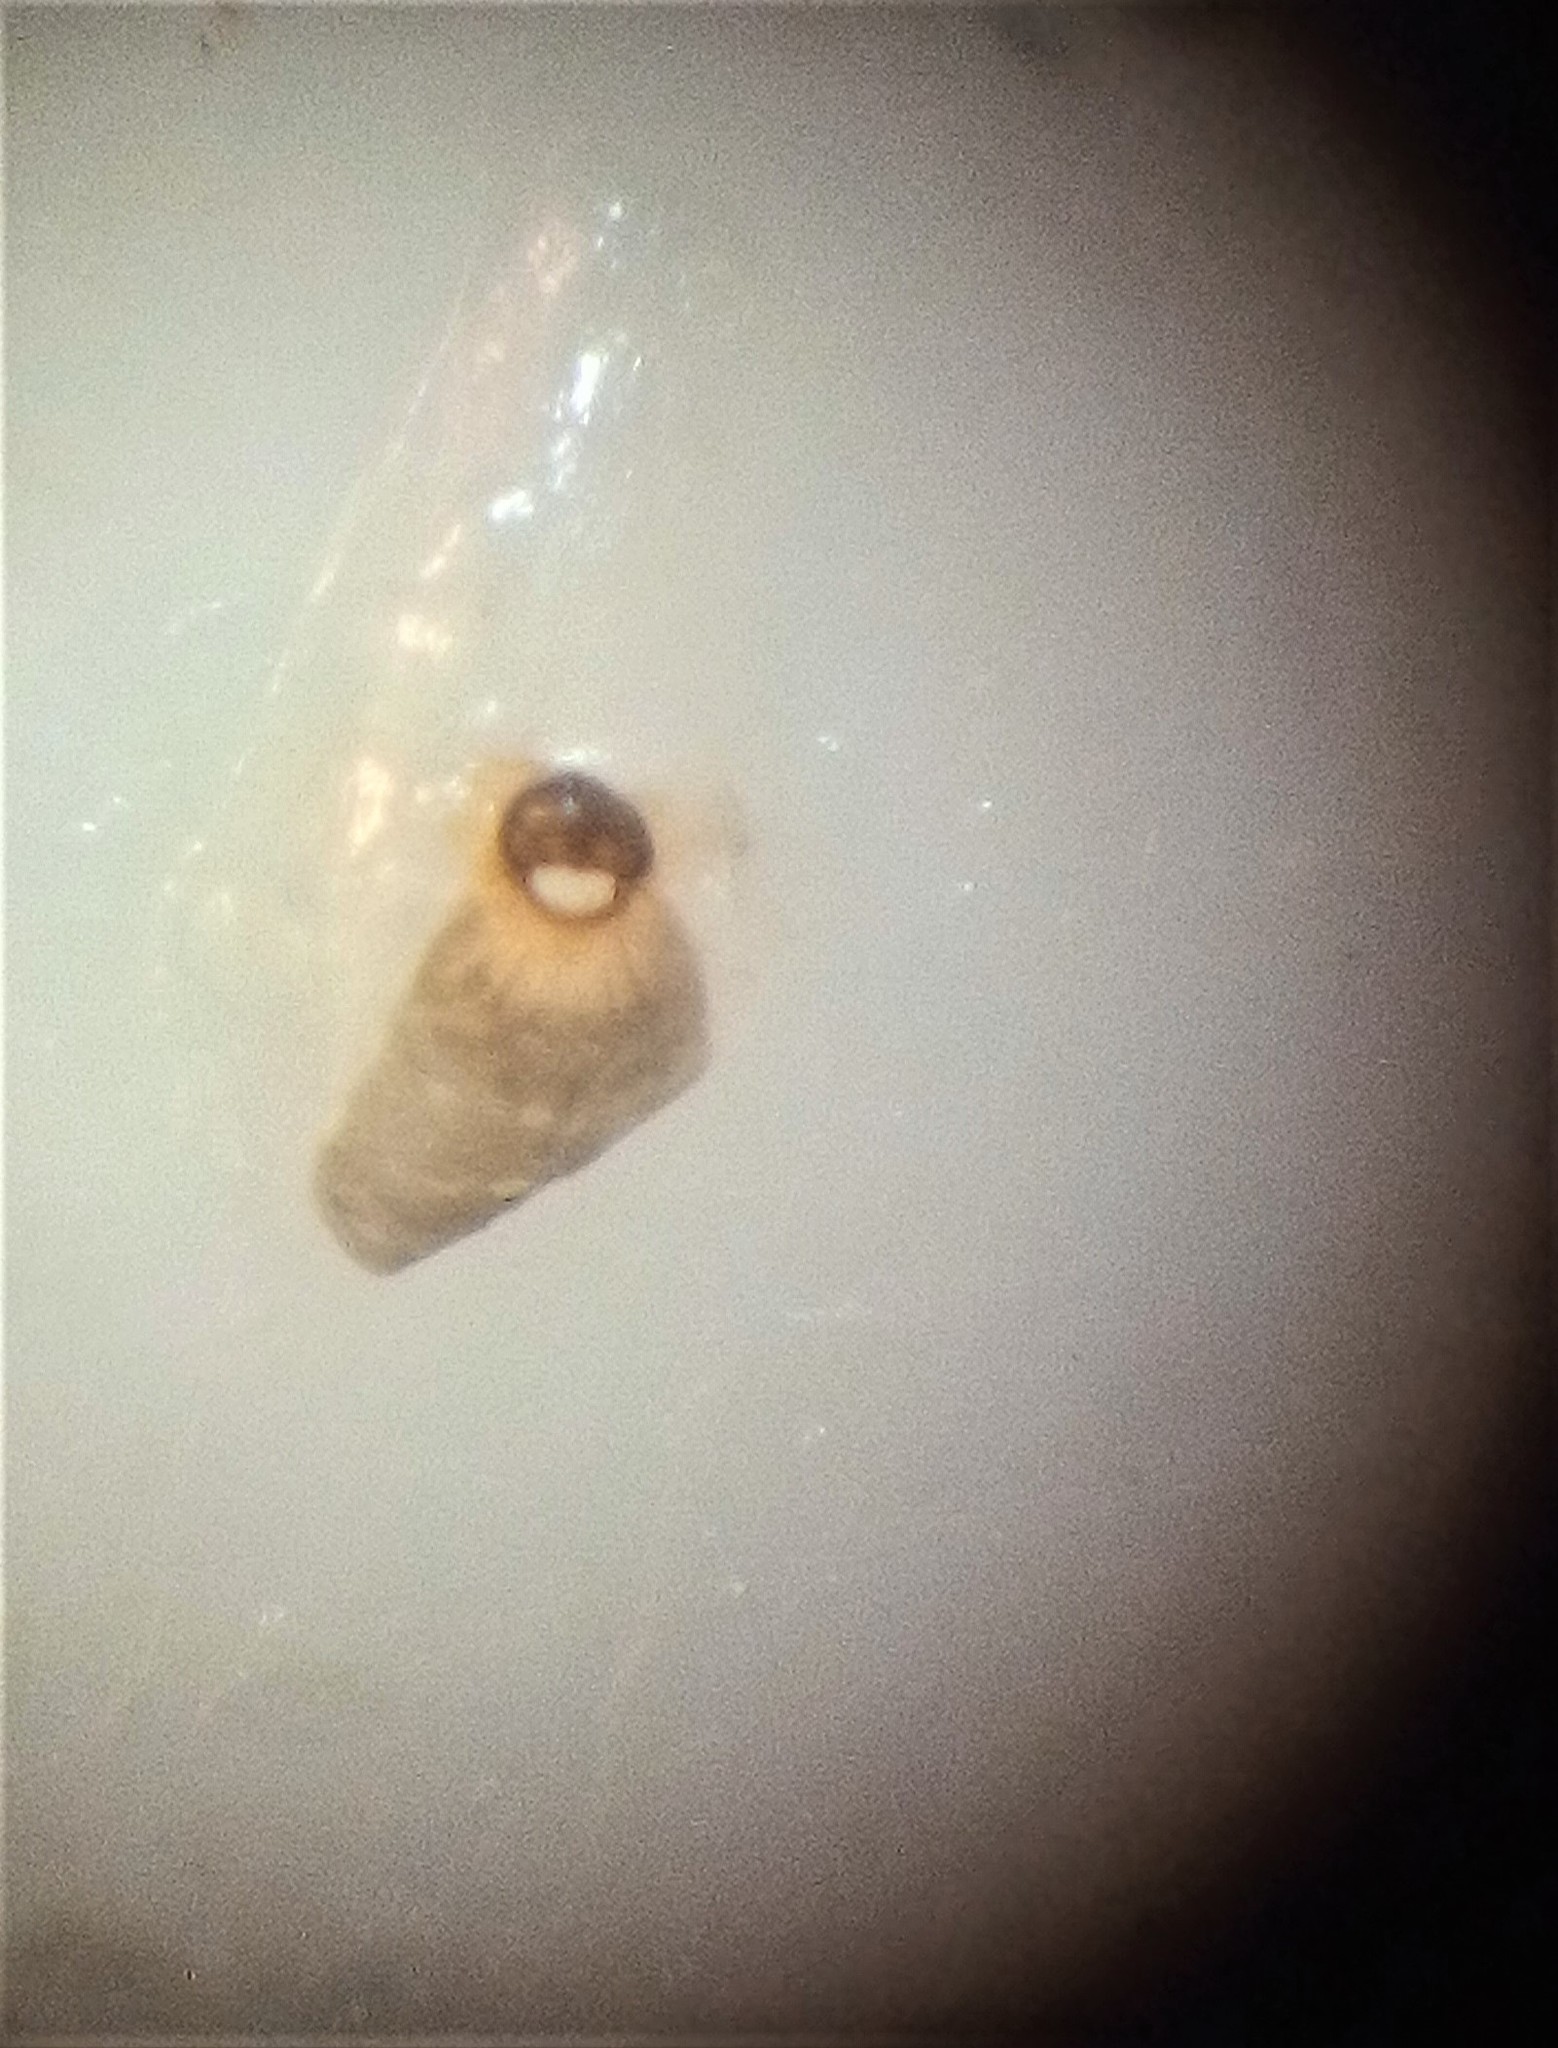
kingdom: Animalia
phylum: Arthropoda
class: Insecta
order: Strepsiptera
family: Elenchidae
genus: Elenchus
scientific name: Elenchus maorianus
